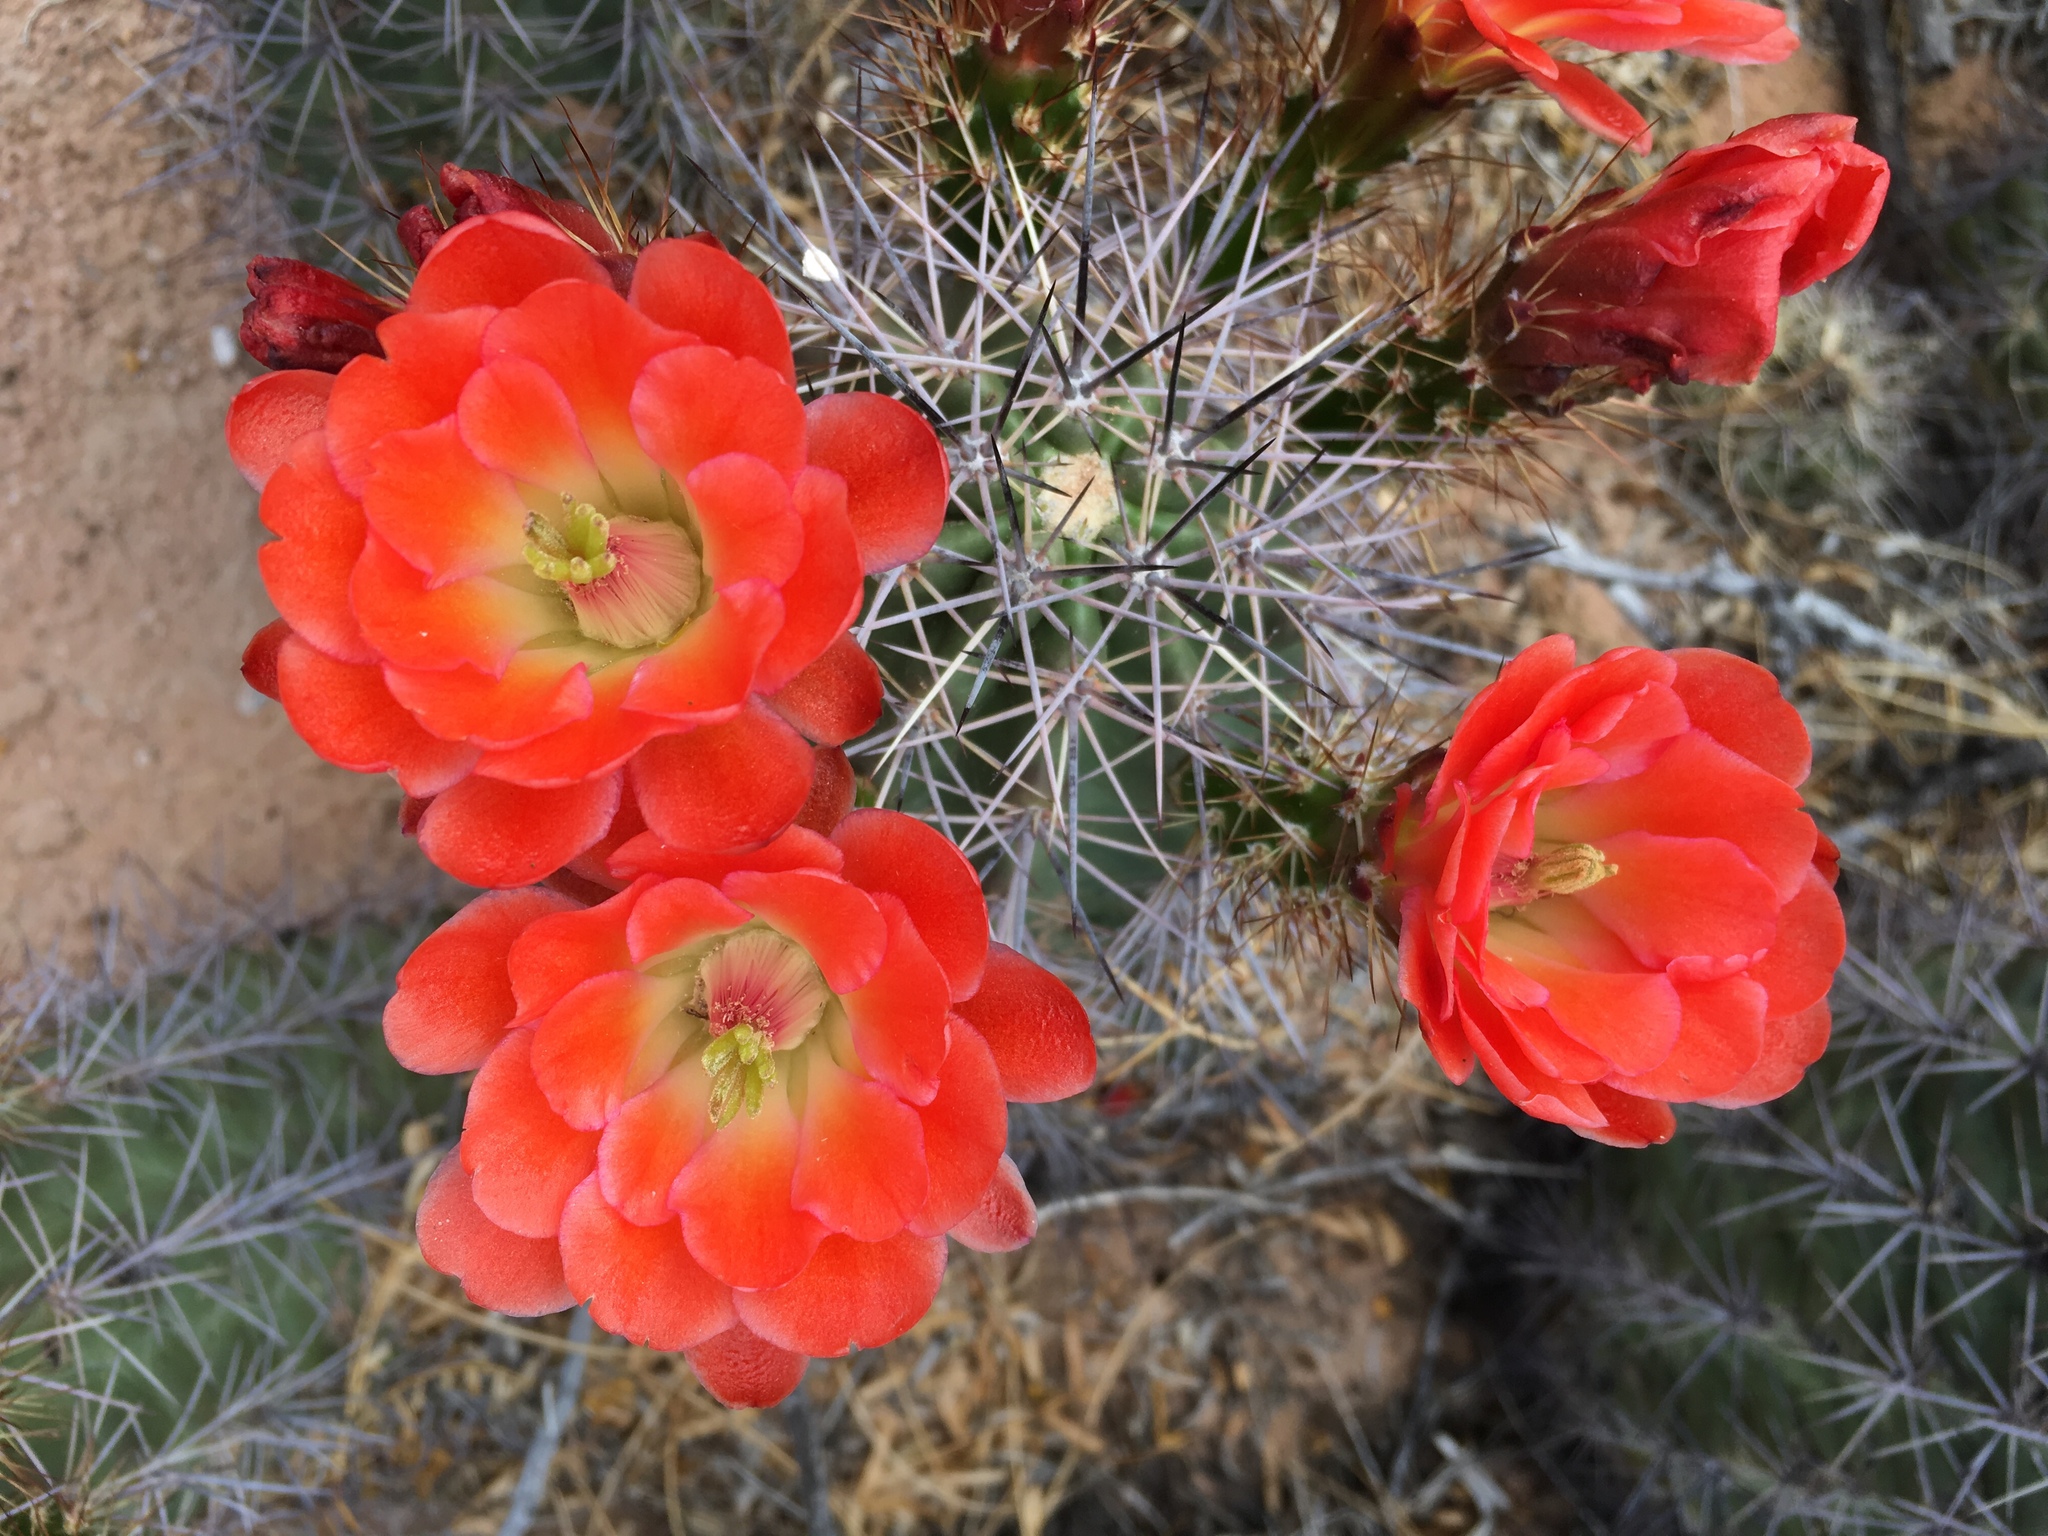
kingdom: Plantae
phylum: Tracheophyta
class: Magnoliopsida
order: Caryophyllales
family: Cactaceae
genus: Echinocereus
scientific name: Echinocereus coccineus
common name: Scarlet hedgehog cactus
